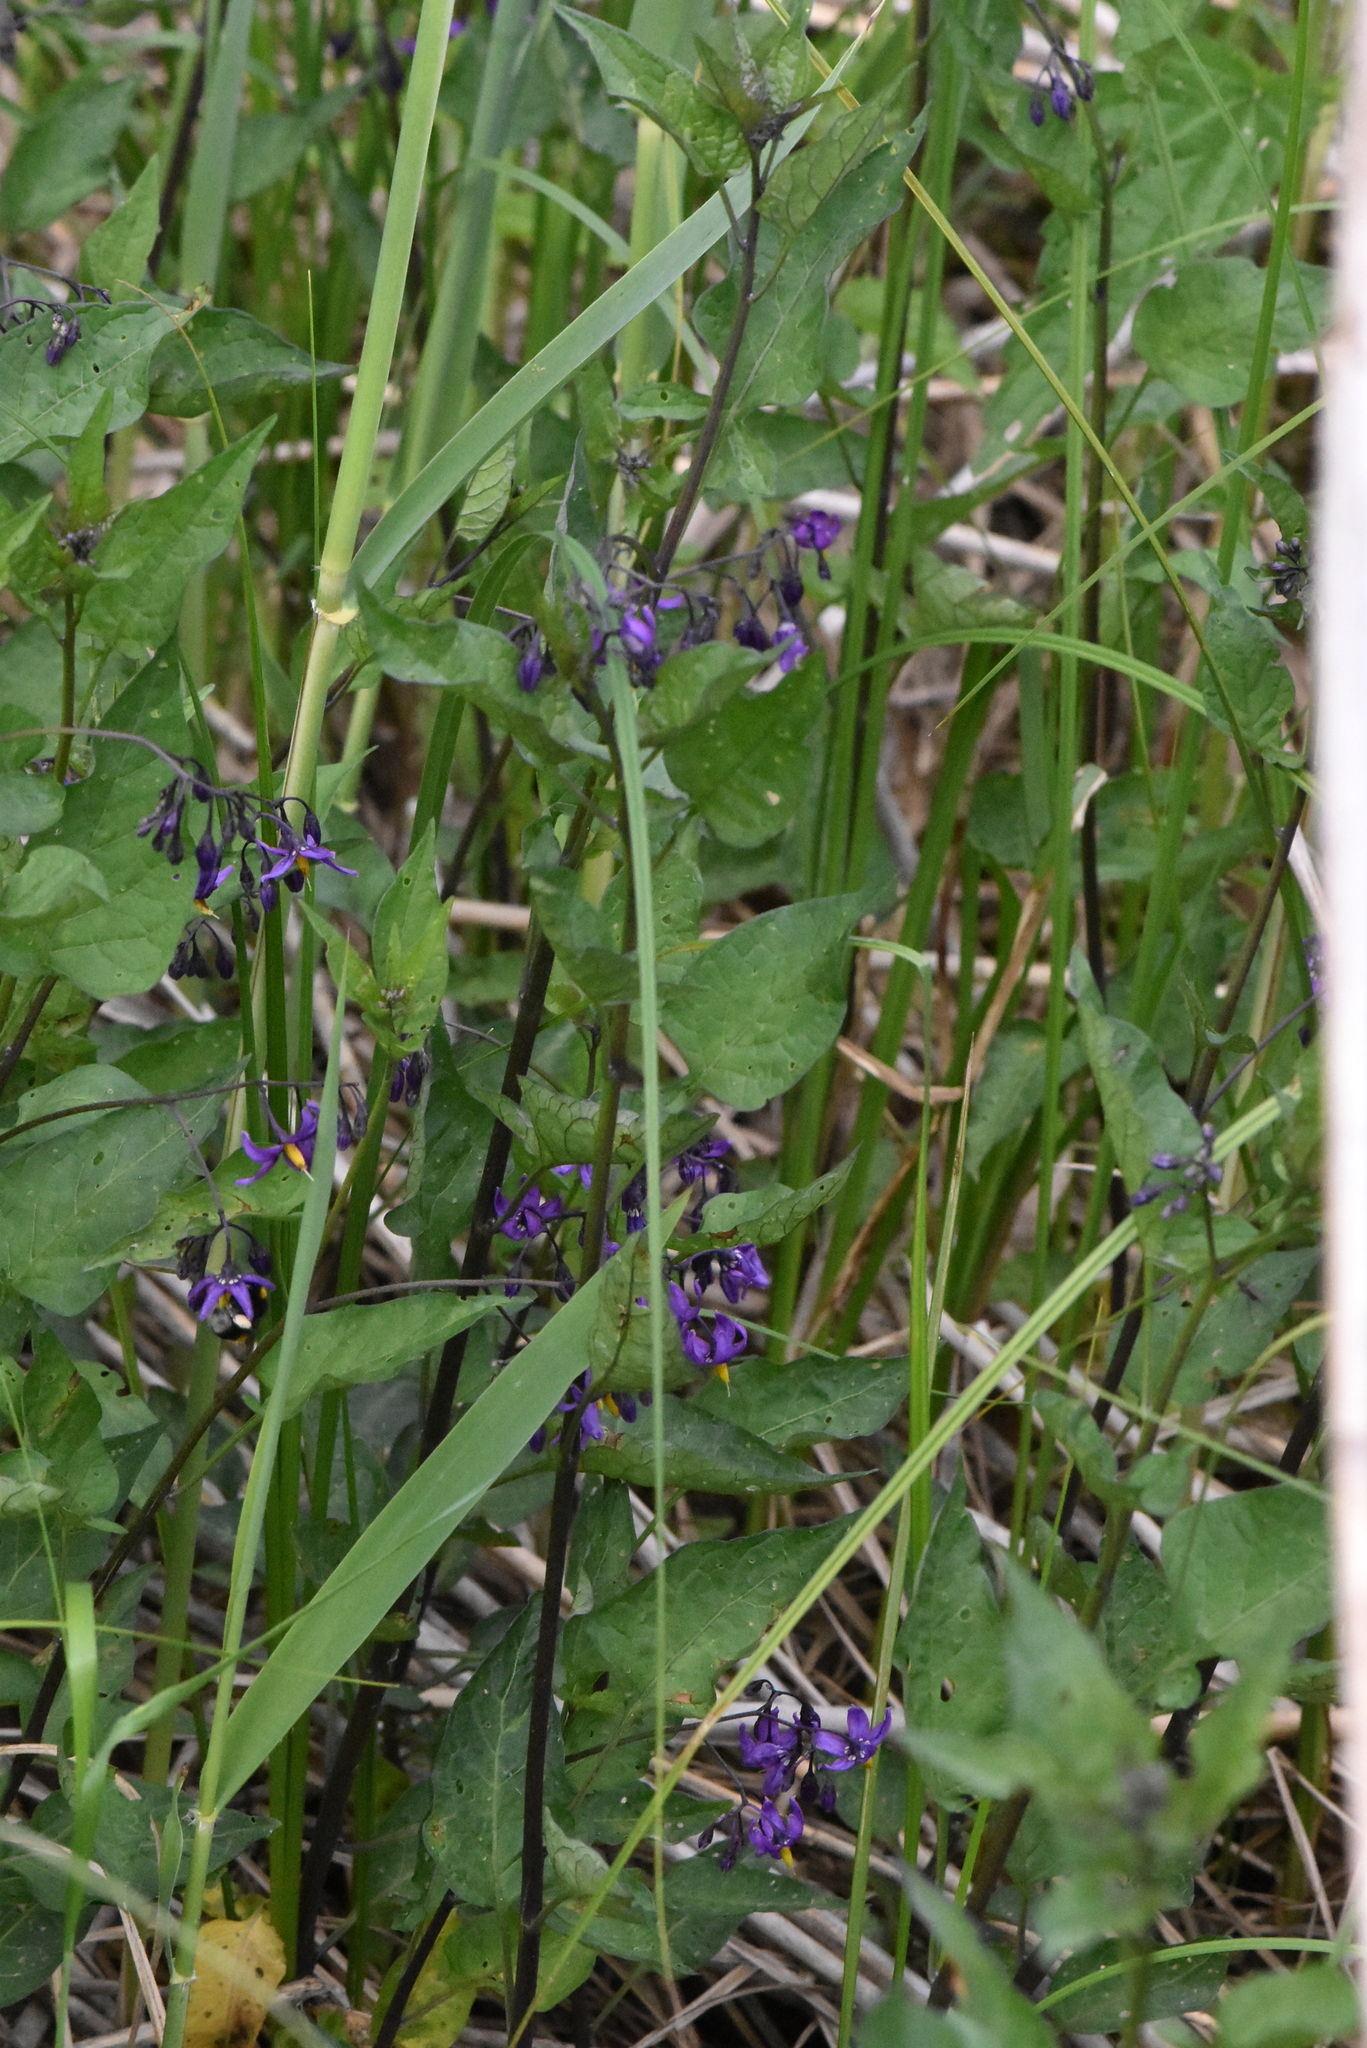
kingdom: Plantae
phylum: Tracheophyta
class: Magnoliopsida
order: Solanales
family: Solanaceae
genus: Solanum
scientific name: Solanum dulcamara
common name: Climbing nightshade
